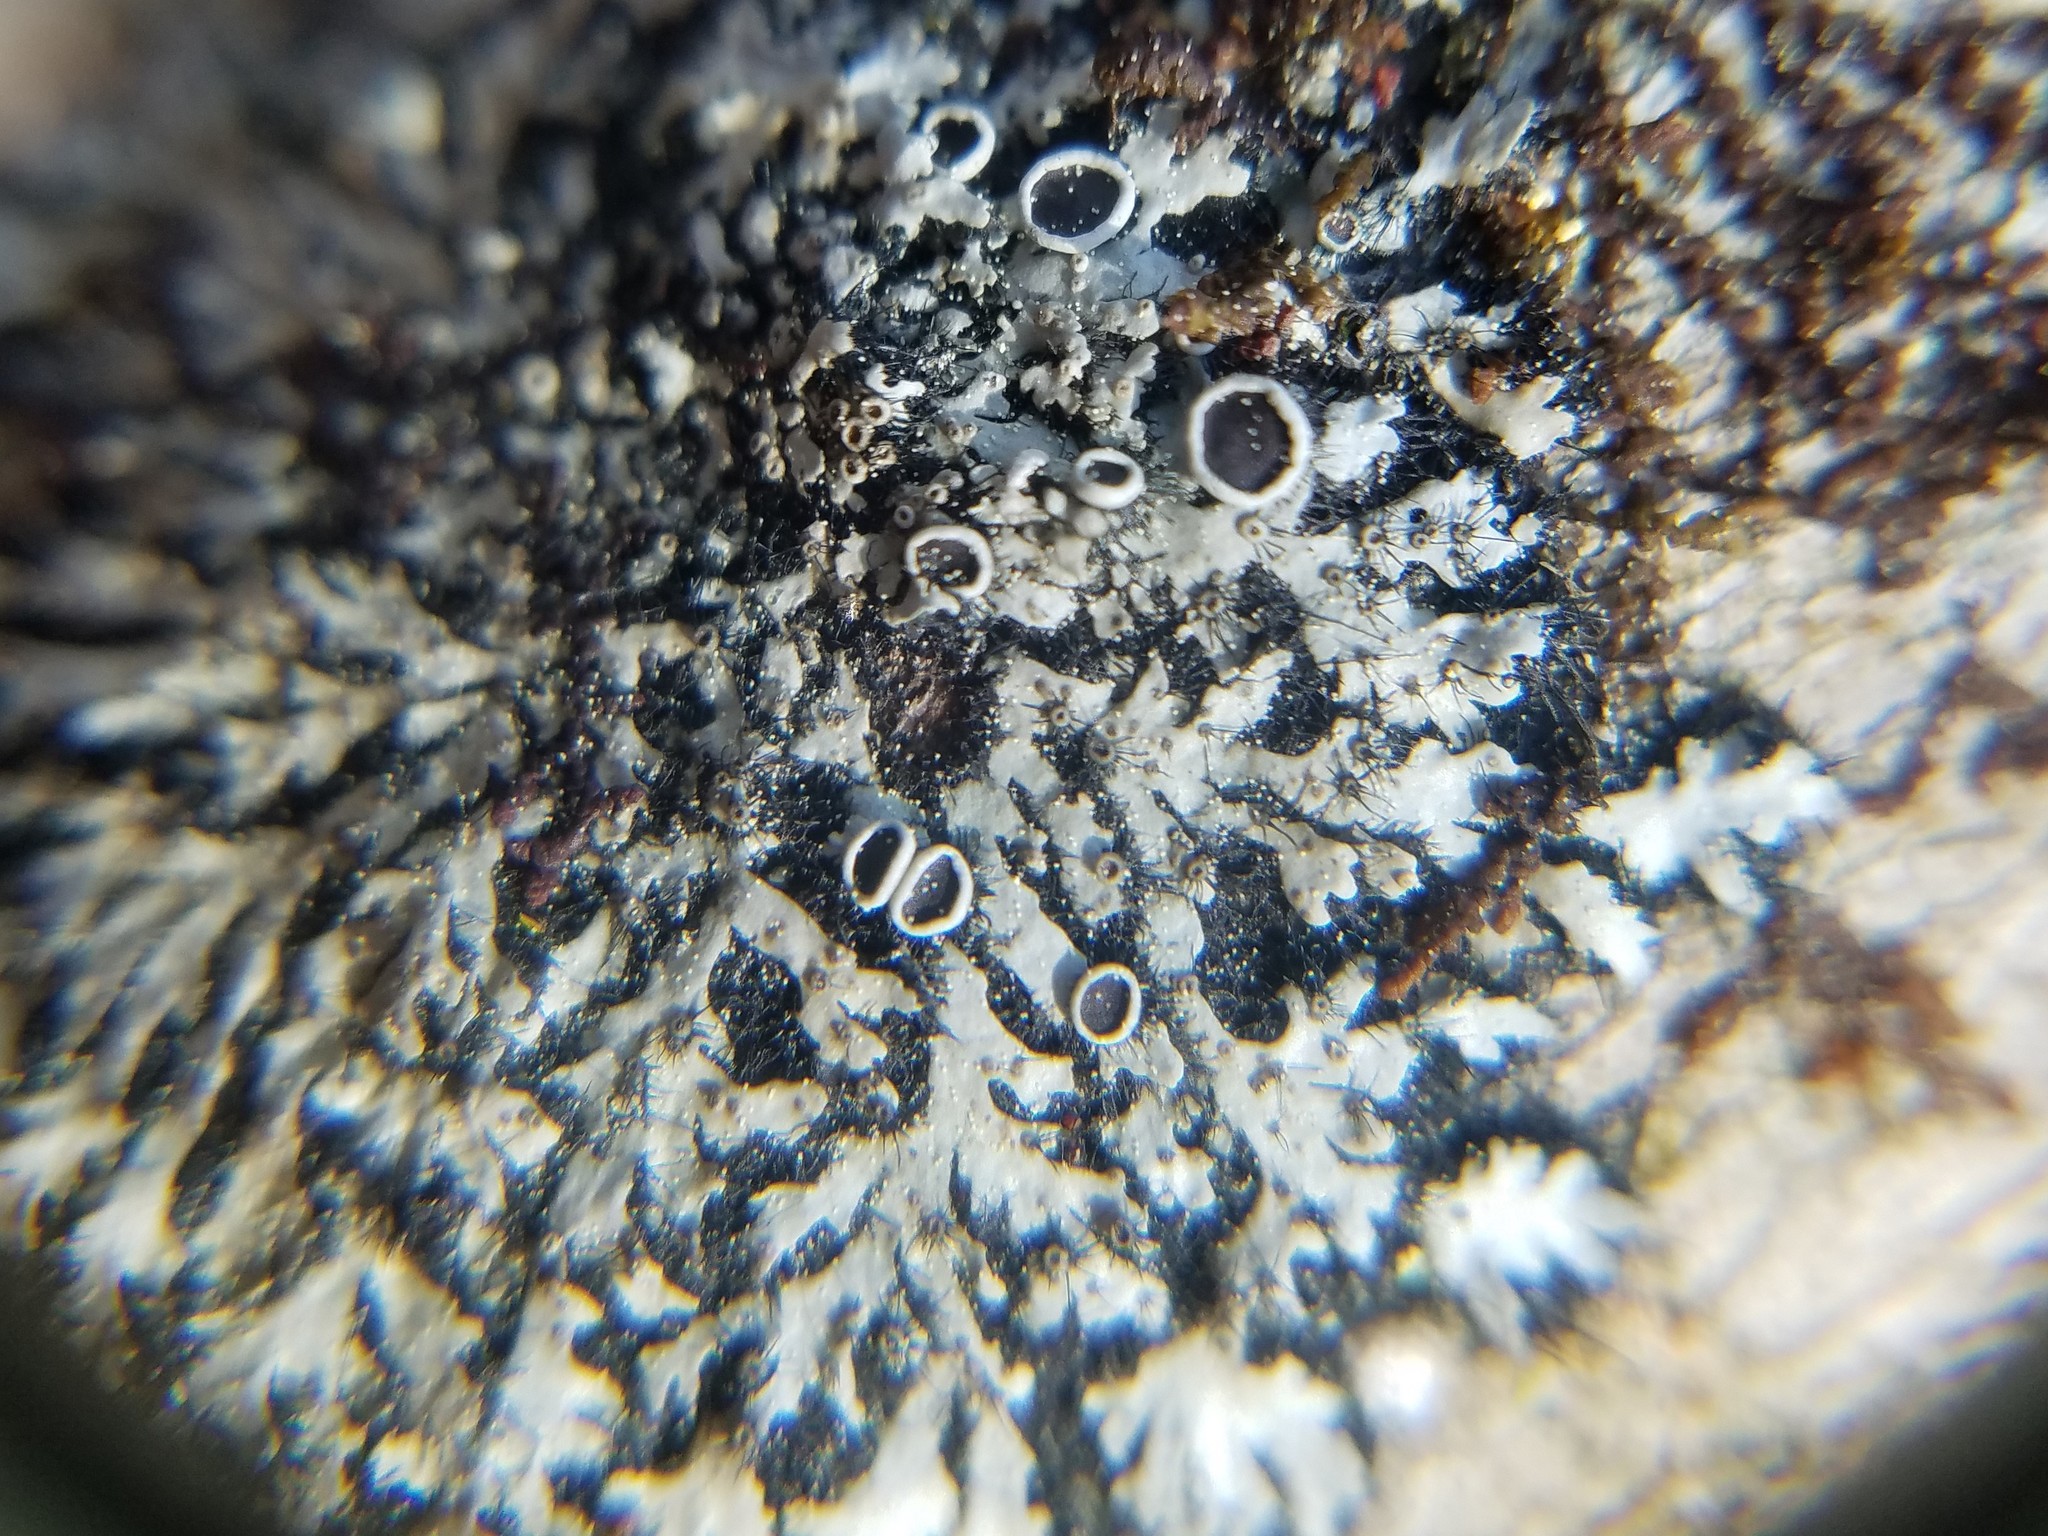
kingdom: Fungi
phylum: Ascomycota
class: Lecanoromycetes
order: Caliciales
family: Physciaceae
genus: Phaeophyscia
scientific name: Phaeophyscia ciliata
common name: Smooth shadow lichen
